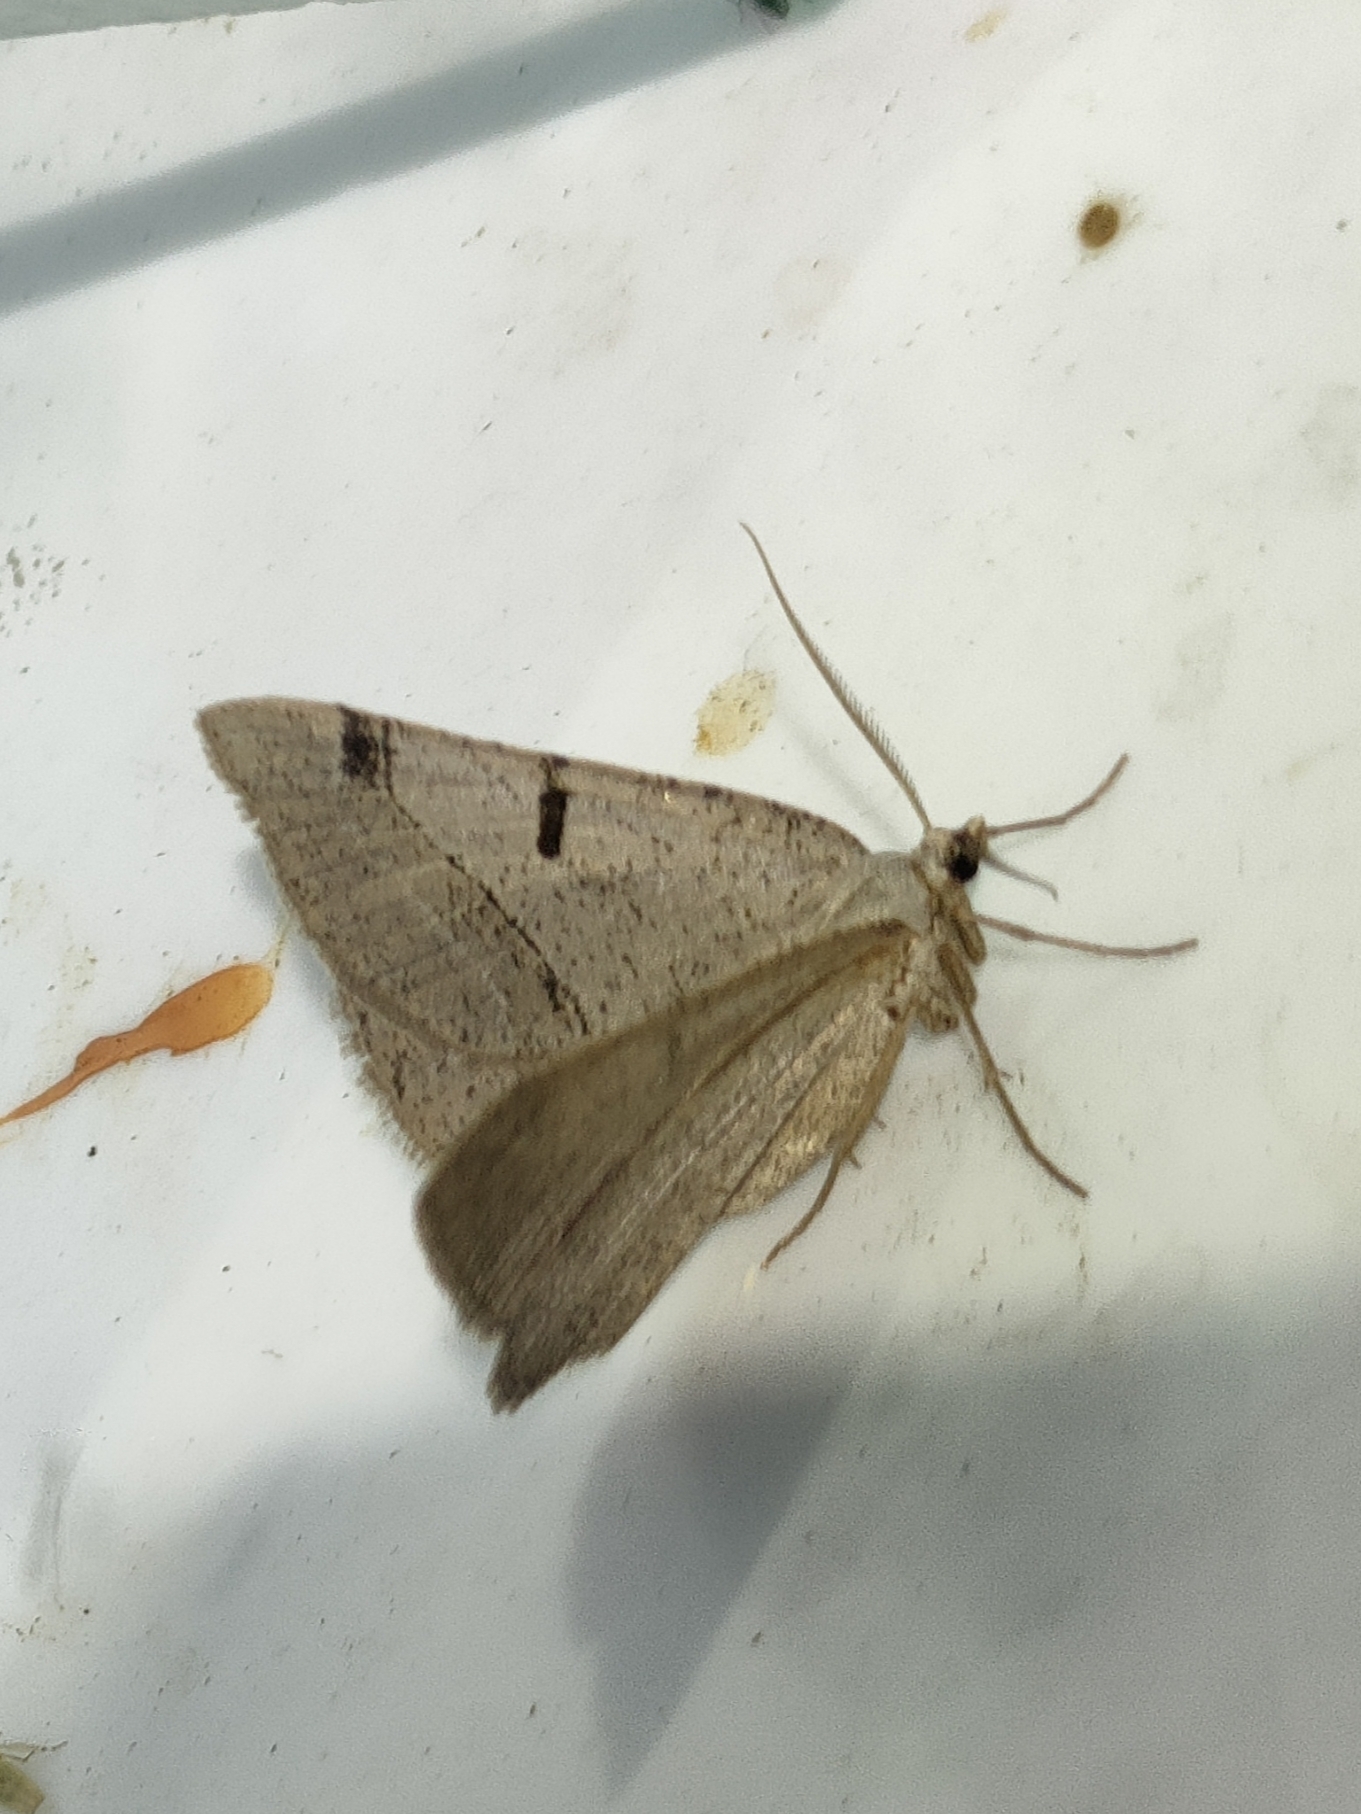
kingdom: Animalia
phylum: Arthropoda
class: Insecta
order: Lepidoptera
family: Geometridae
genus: Itame
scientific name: Itame vincularia
